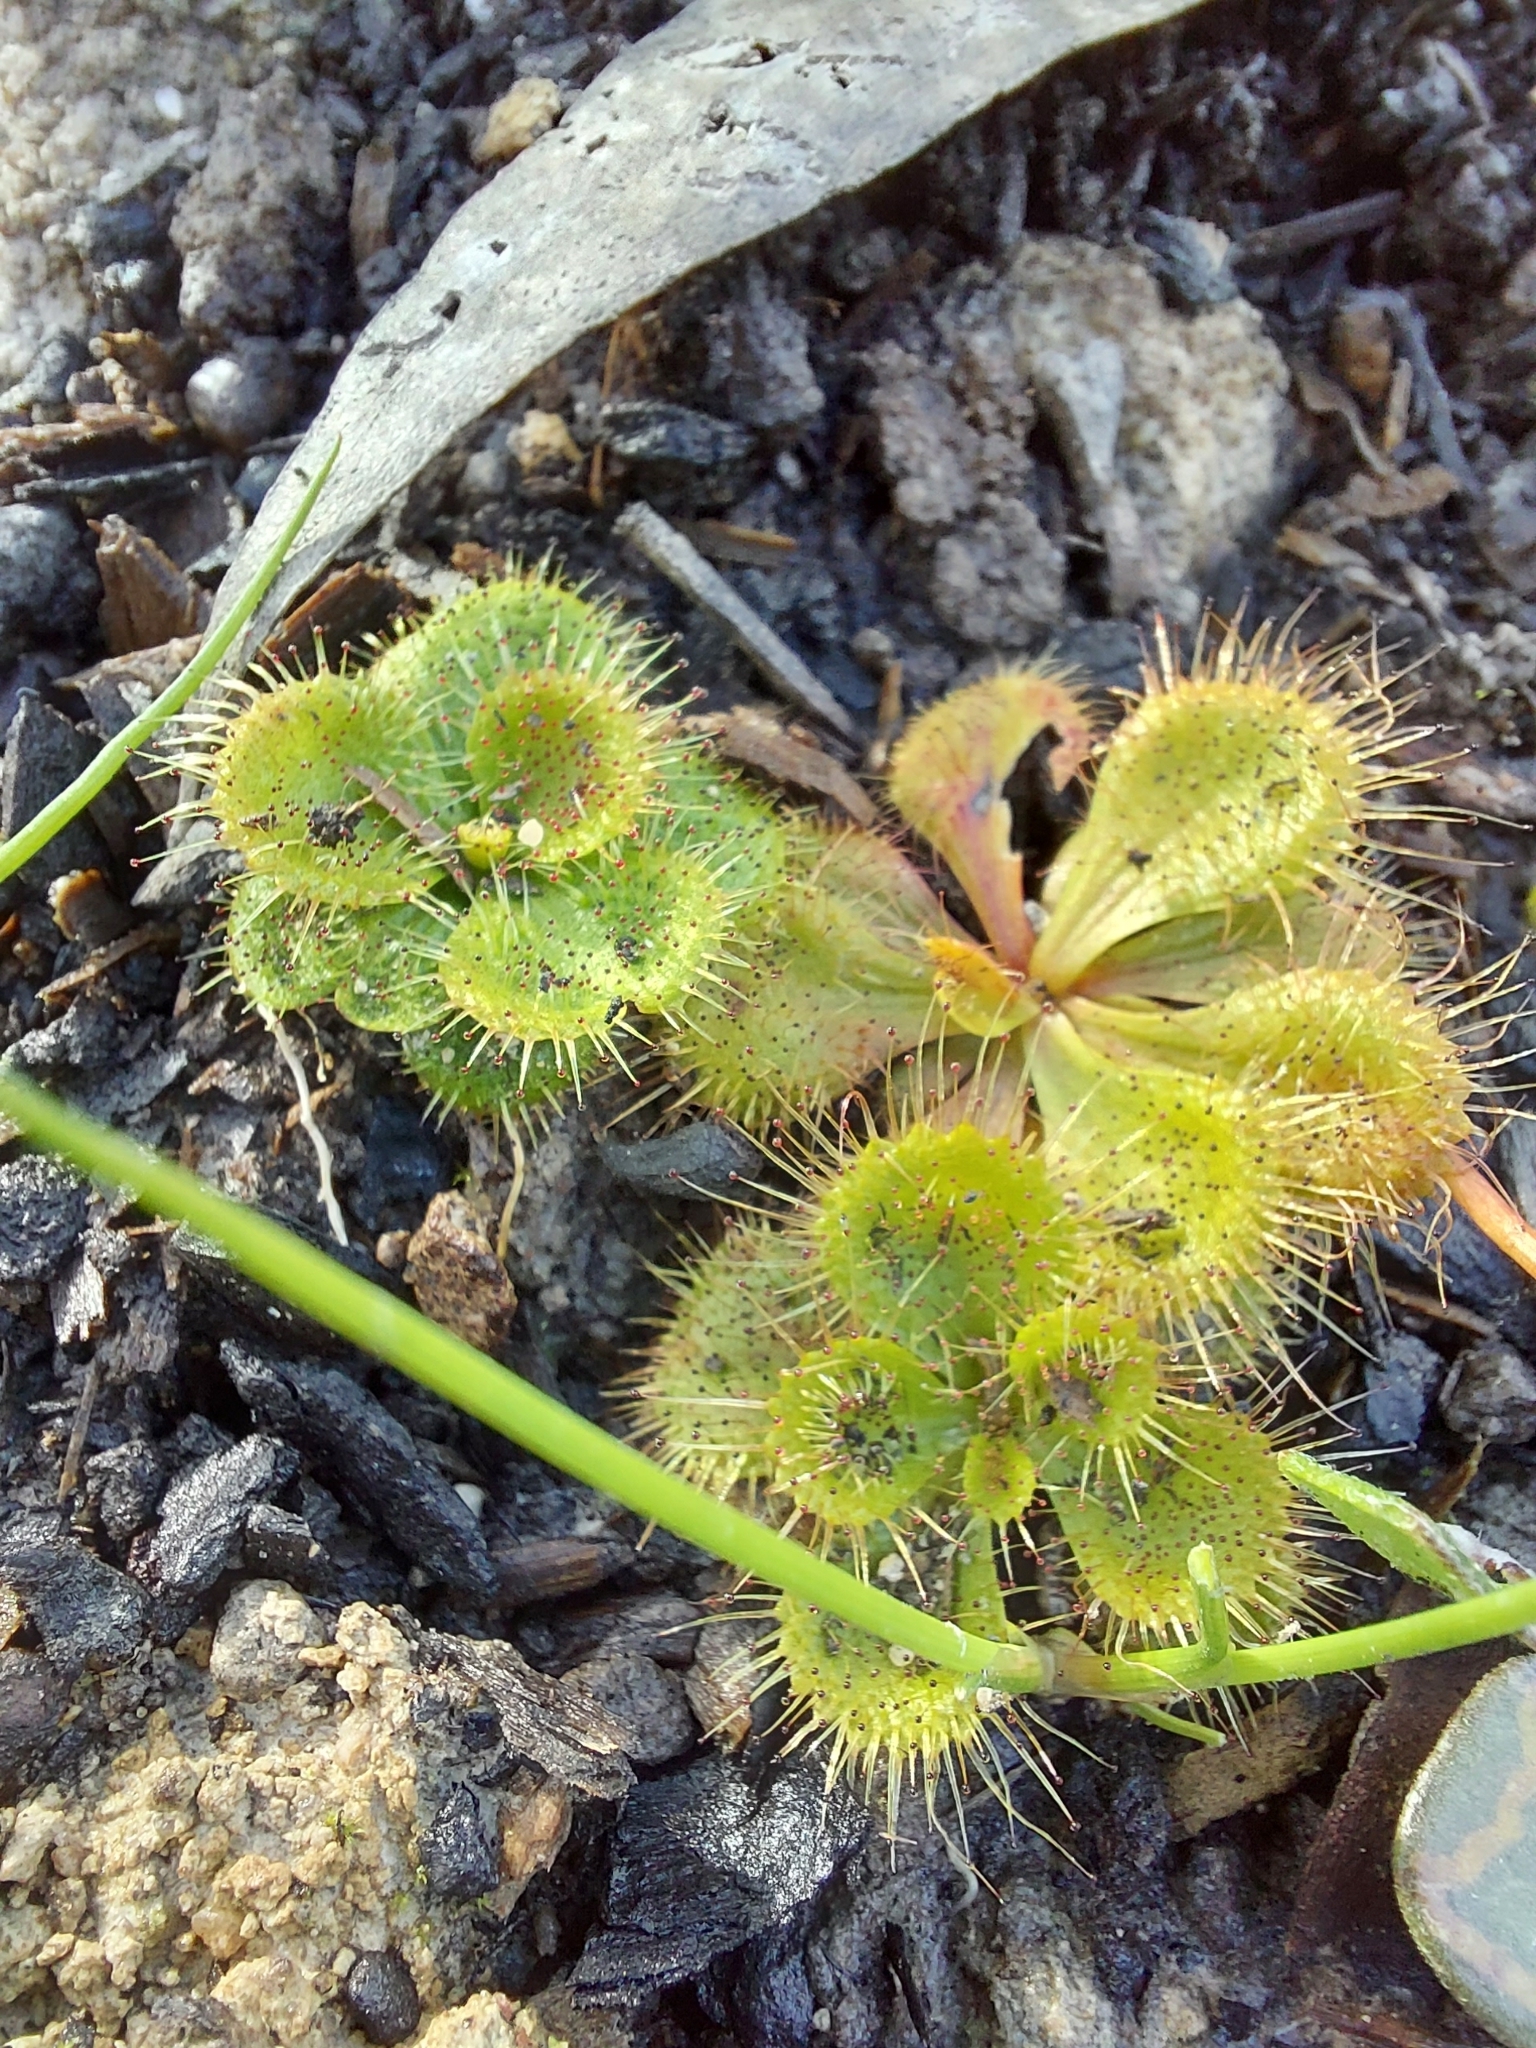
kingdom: Plantae
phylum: Tracheophyta
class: Magnoliopsida
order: Caryophyllales
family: Droseraceae
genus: Drosera
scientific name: Drosera aberrans
